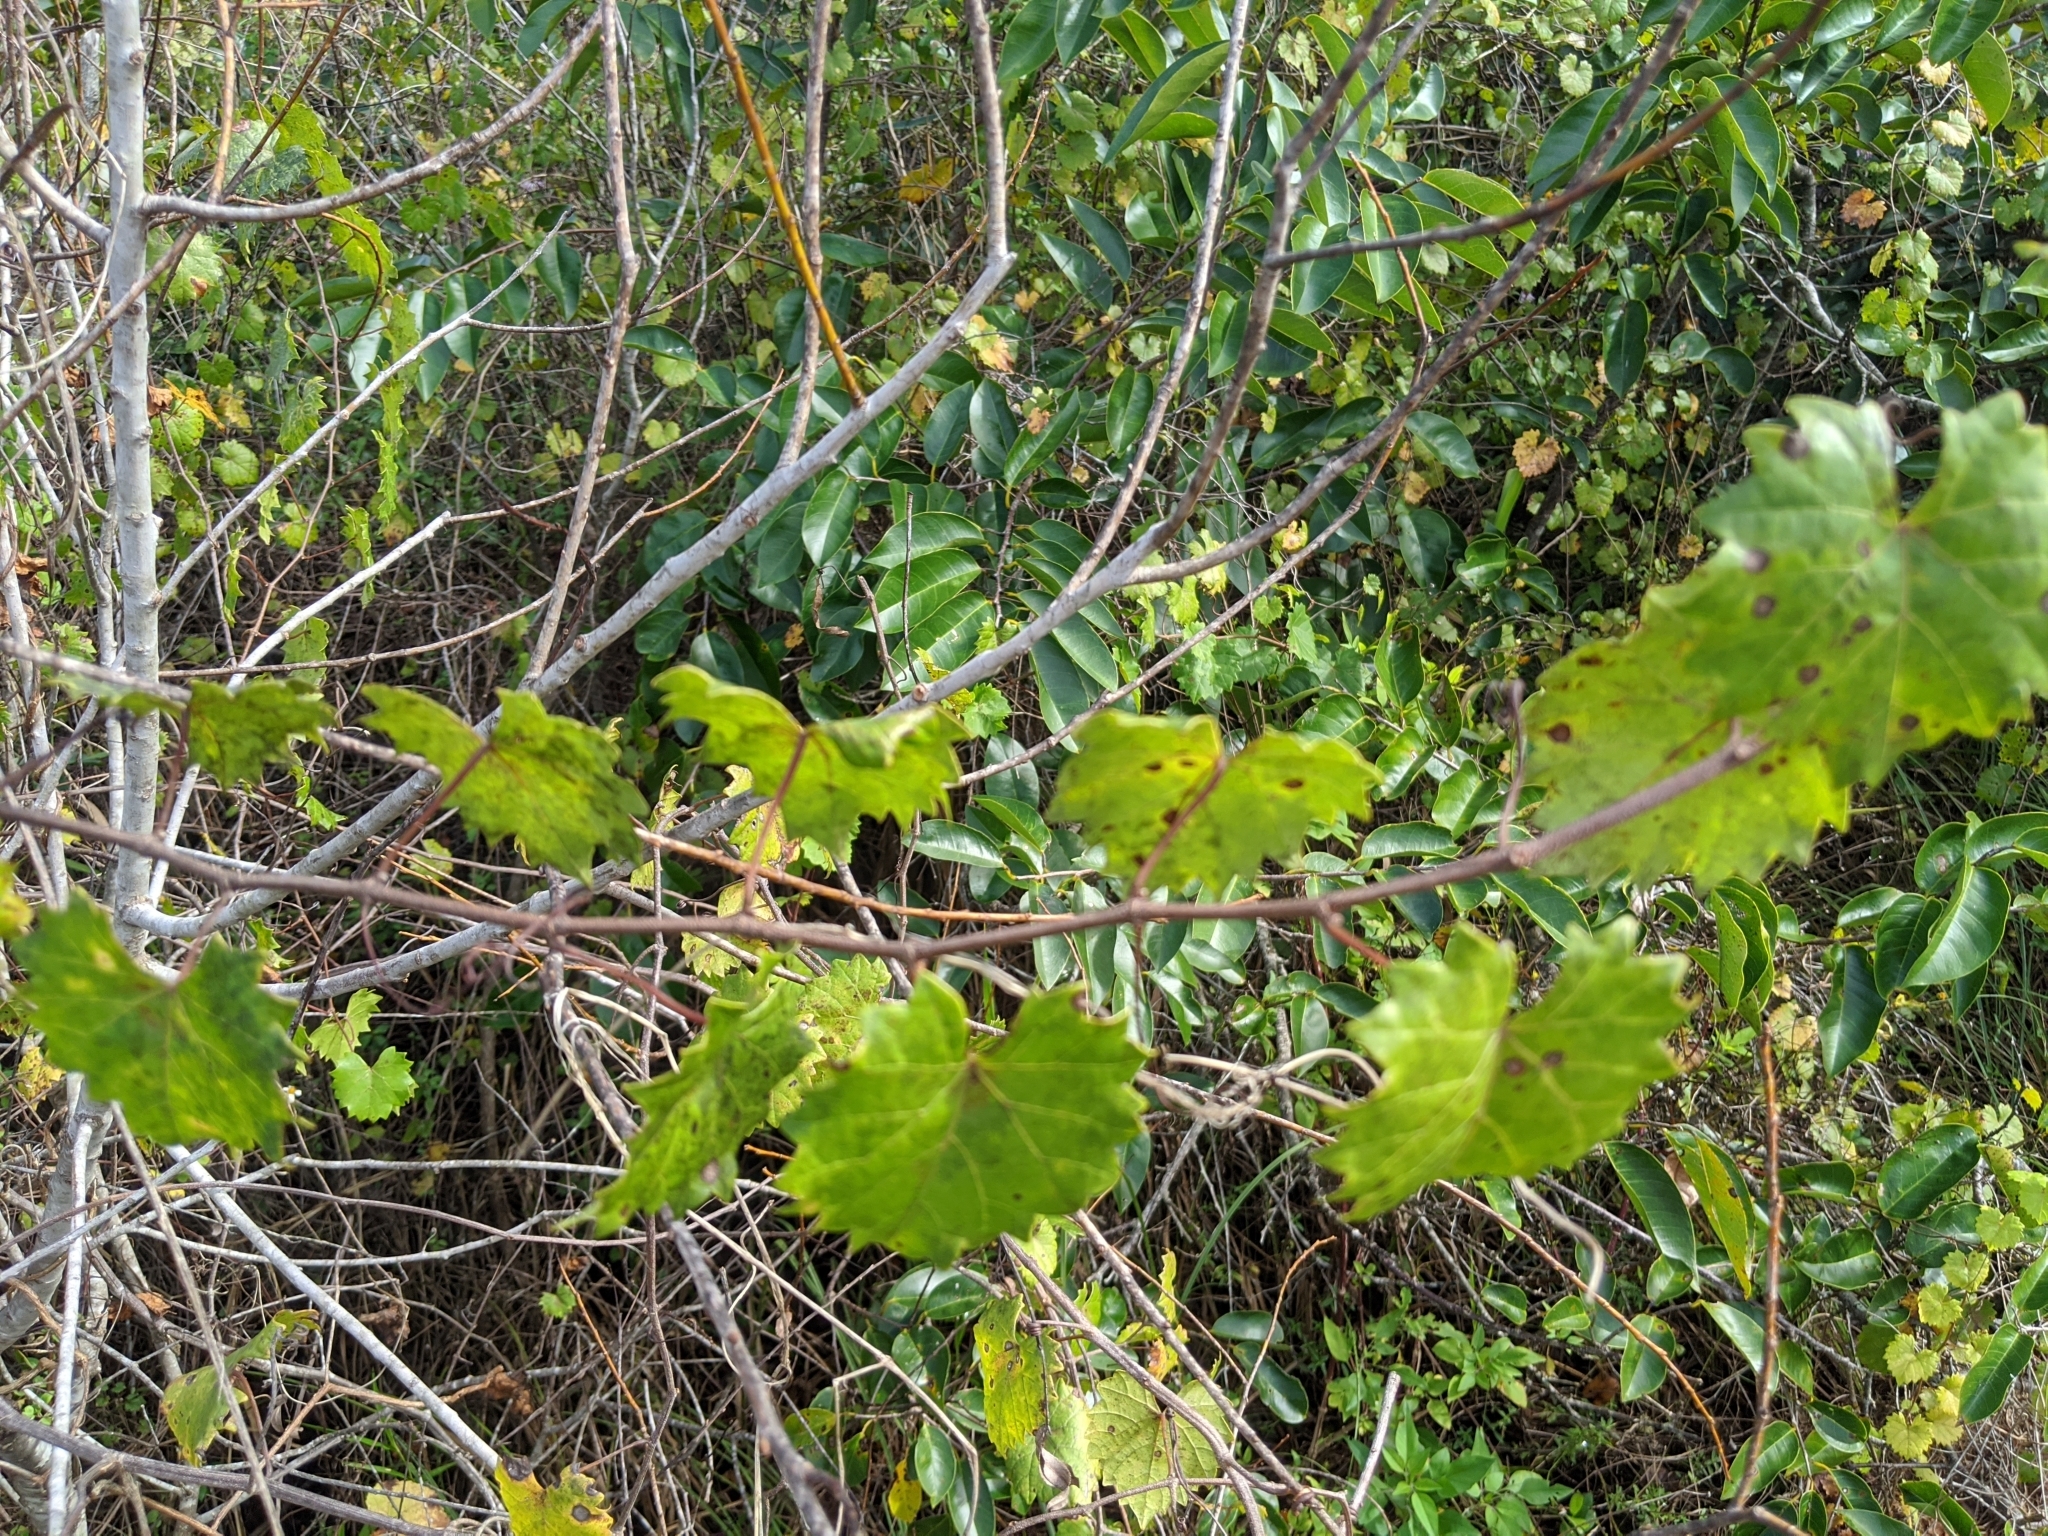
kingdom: Plantae
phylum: Tracheophyta
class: Magnoliopsida
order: Vitales
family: Vitaceae
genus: Vitis
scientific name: Vitis rotundifolia
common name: Muscadine grape
